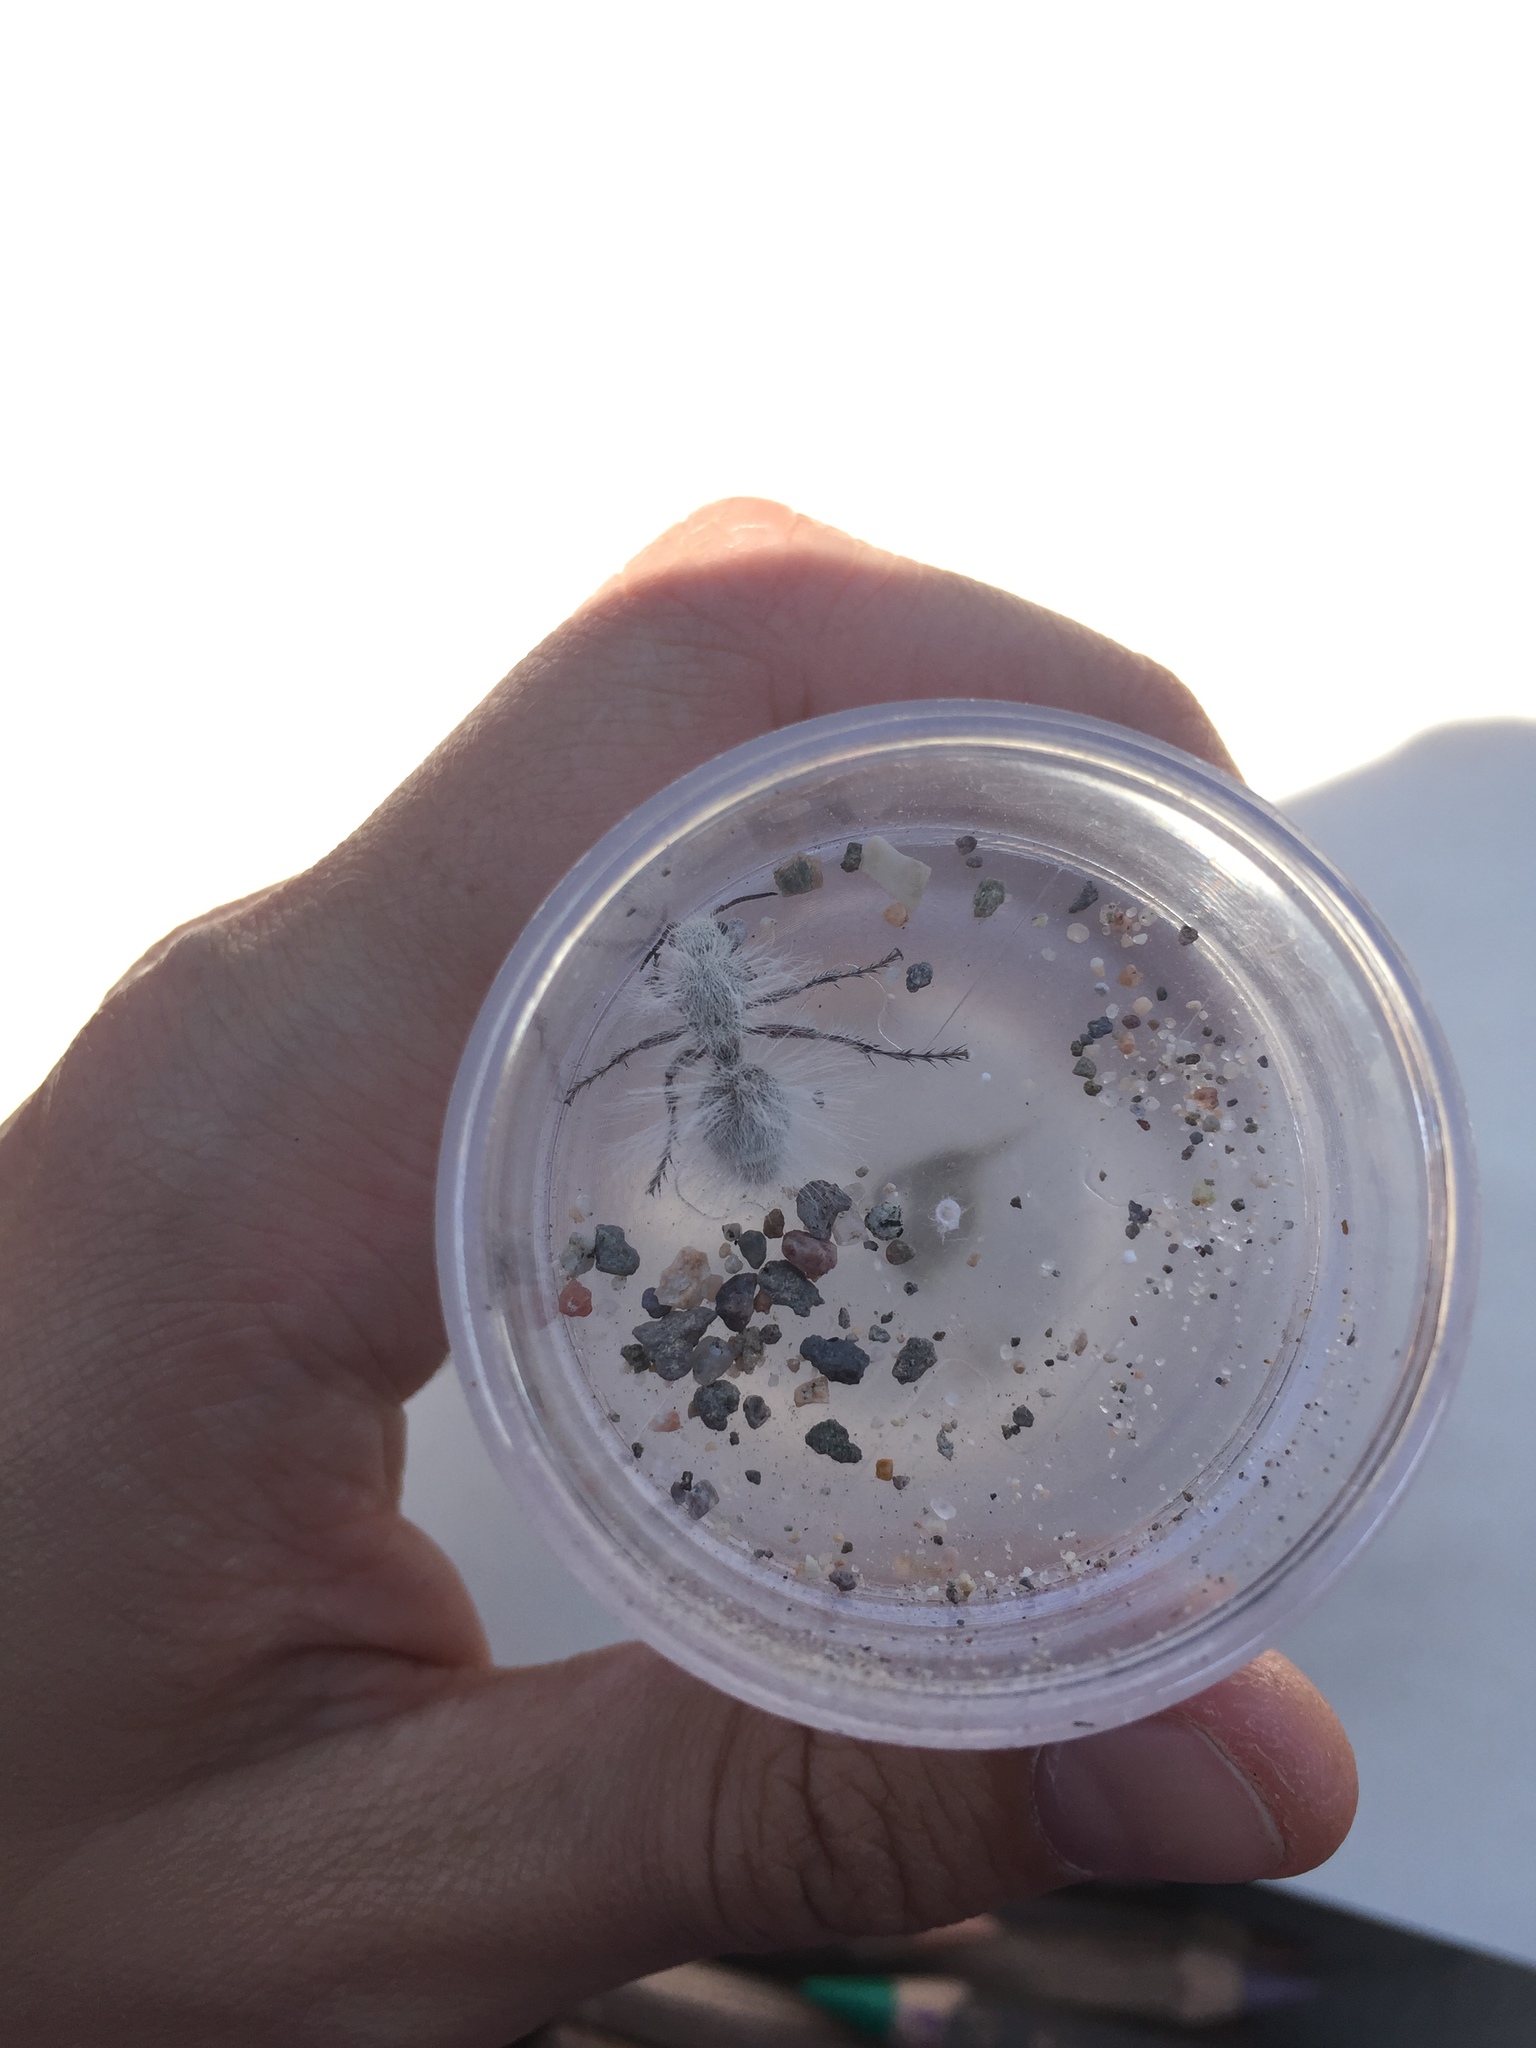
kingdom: Animalia
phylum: Arthropoda
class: Insecta
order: Hymenoptera
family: Mutillidae
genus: Dasymutilla
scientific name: Dasymutilla pseudopappus
